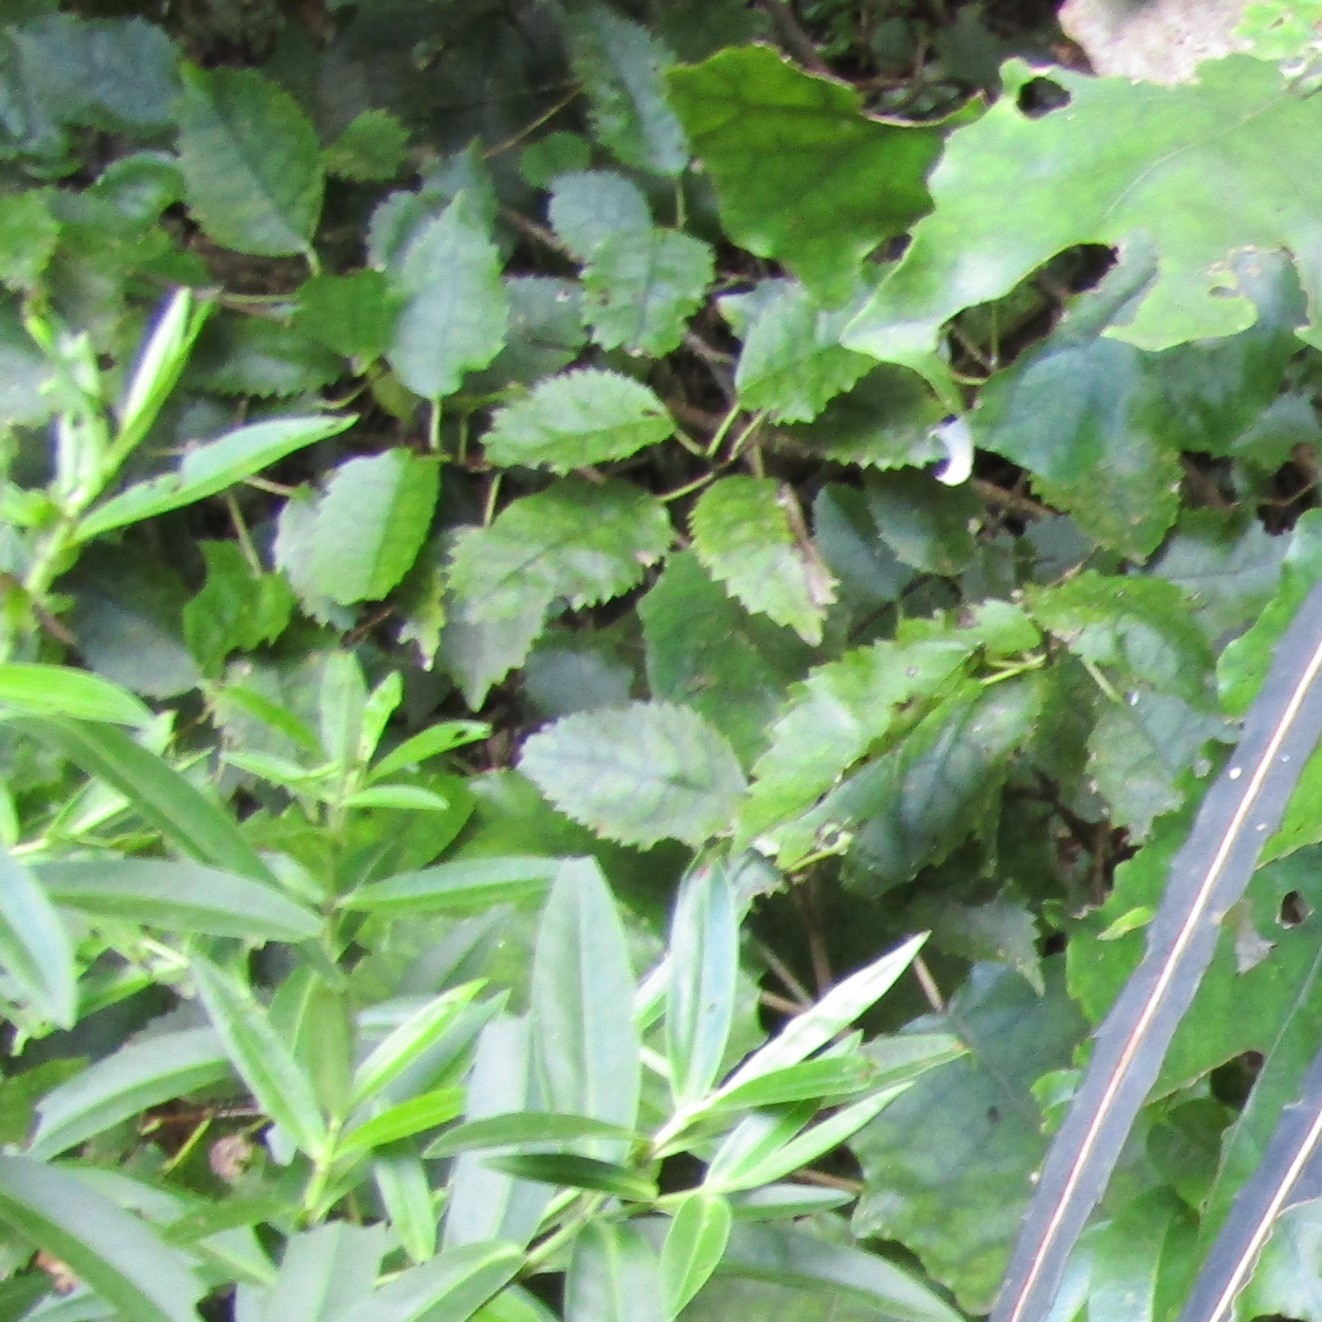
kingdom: Plantae
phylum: Tracheophyta
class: Magnoliopsida
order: Malvales
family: Malvaceae
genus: Hoheria
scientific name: Hoheria populnea
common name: Lacebark
